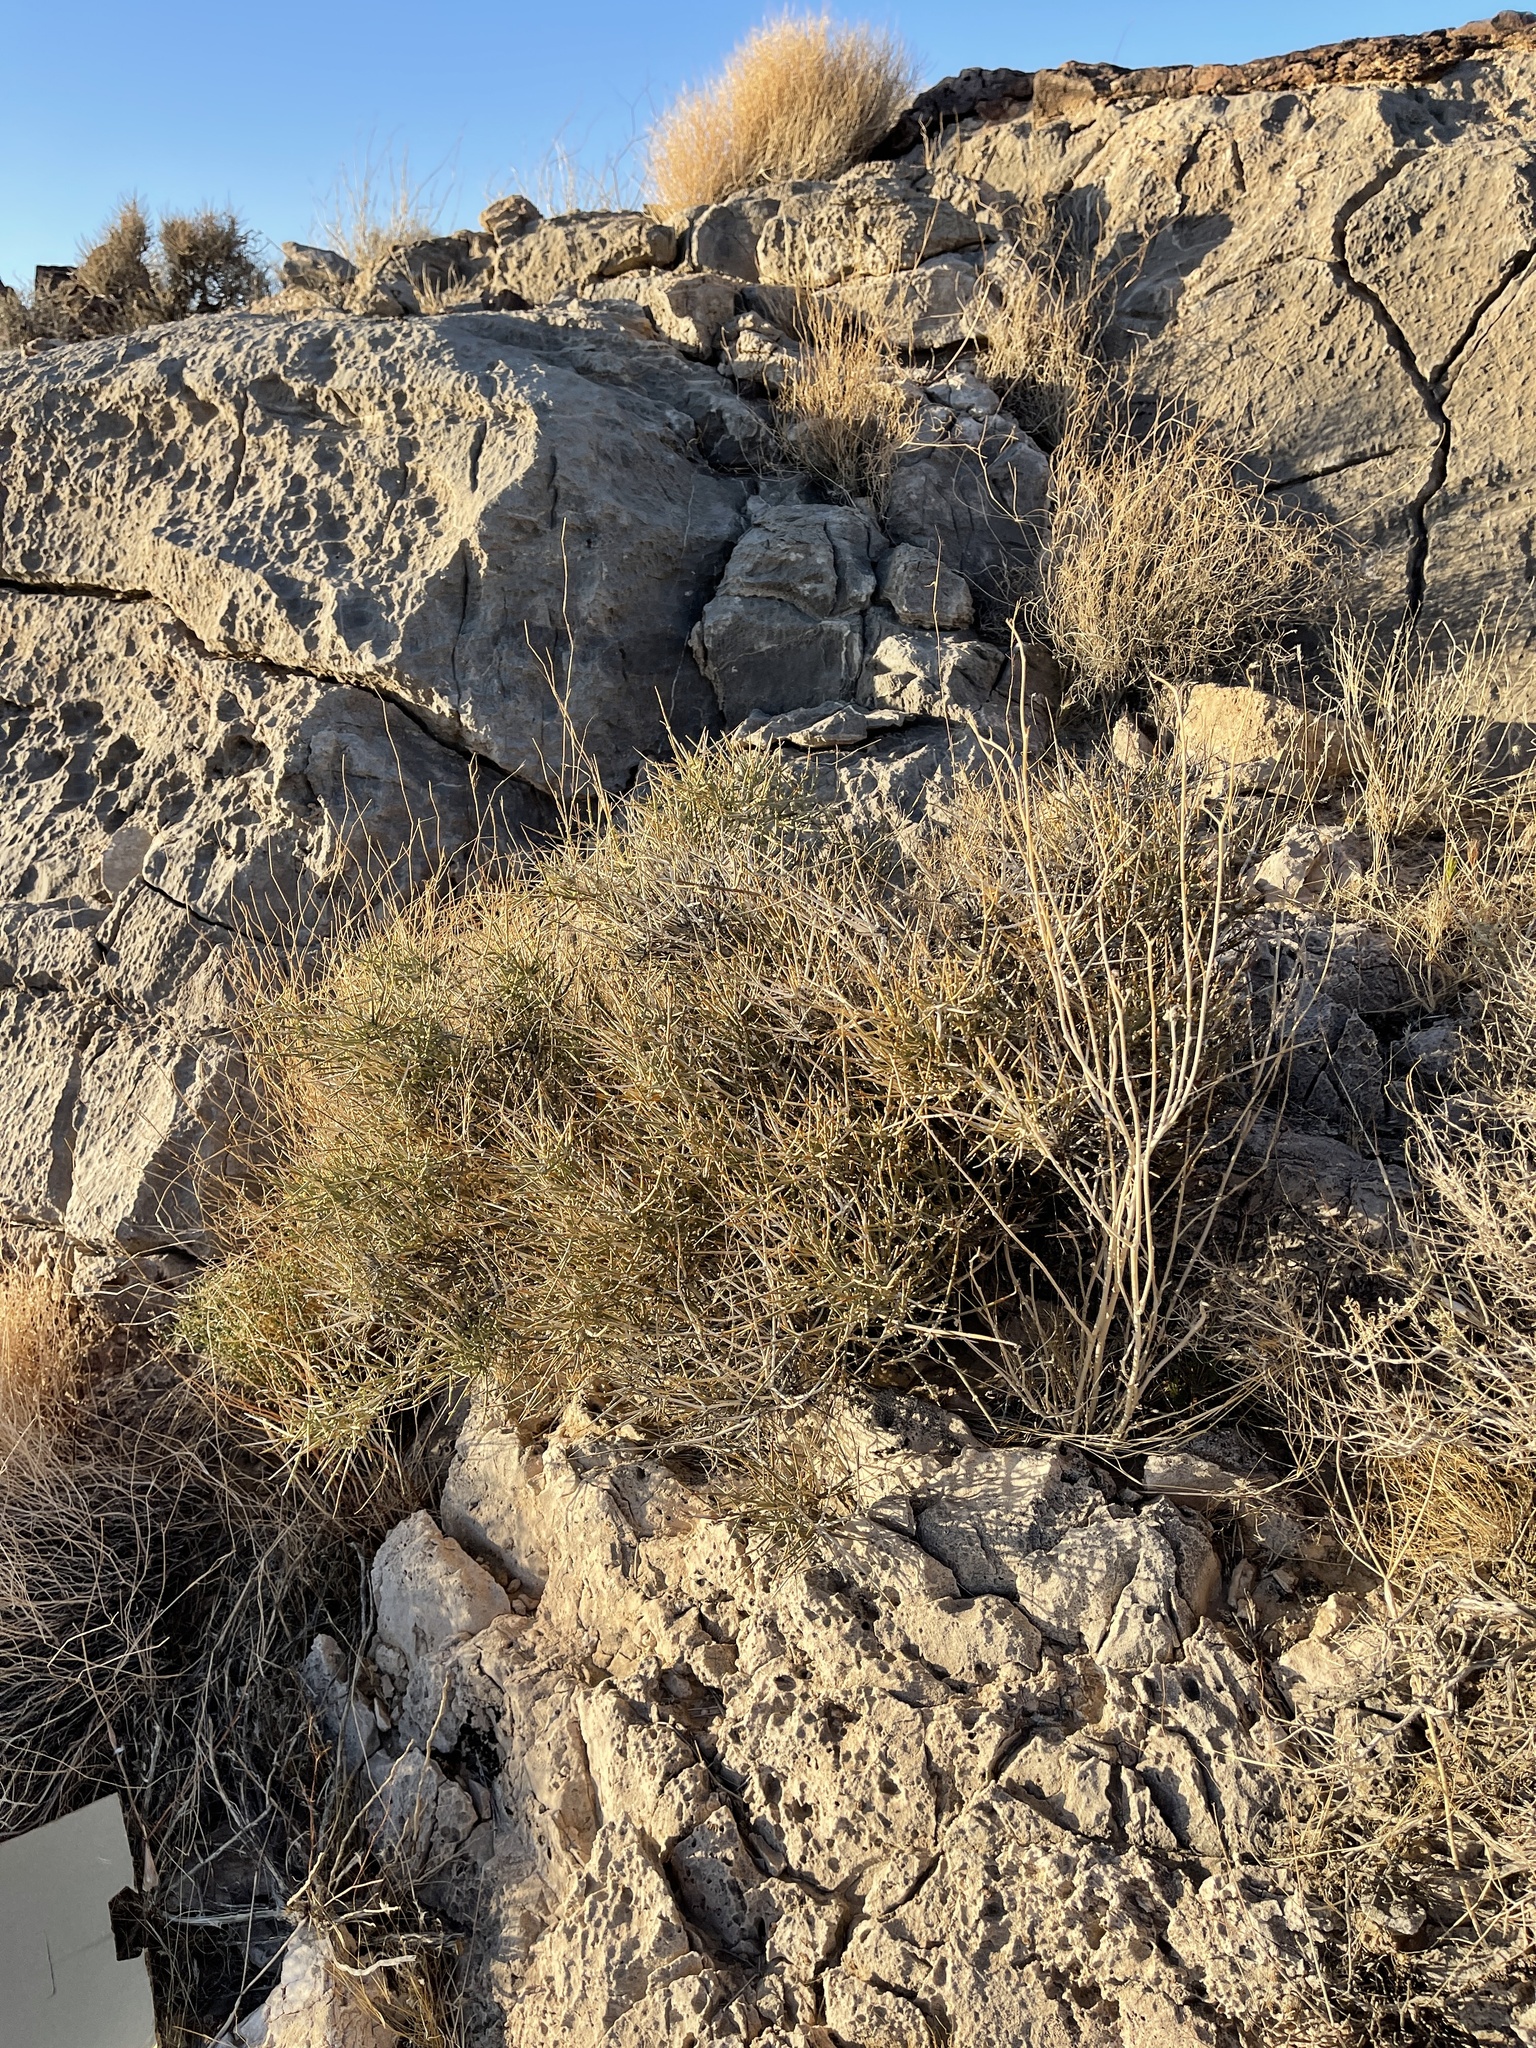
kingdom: Plantae
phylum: Tracheophyta
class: Gnetopsida
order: Ephedrales
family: Ephedraceae
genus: Ephedra
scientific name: Ephedra nevadensis
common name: Gray ephedra
